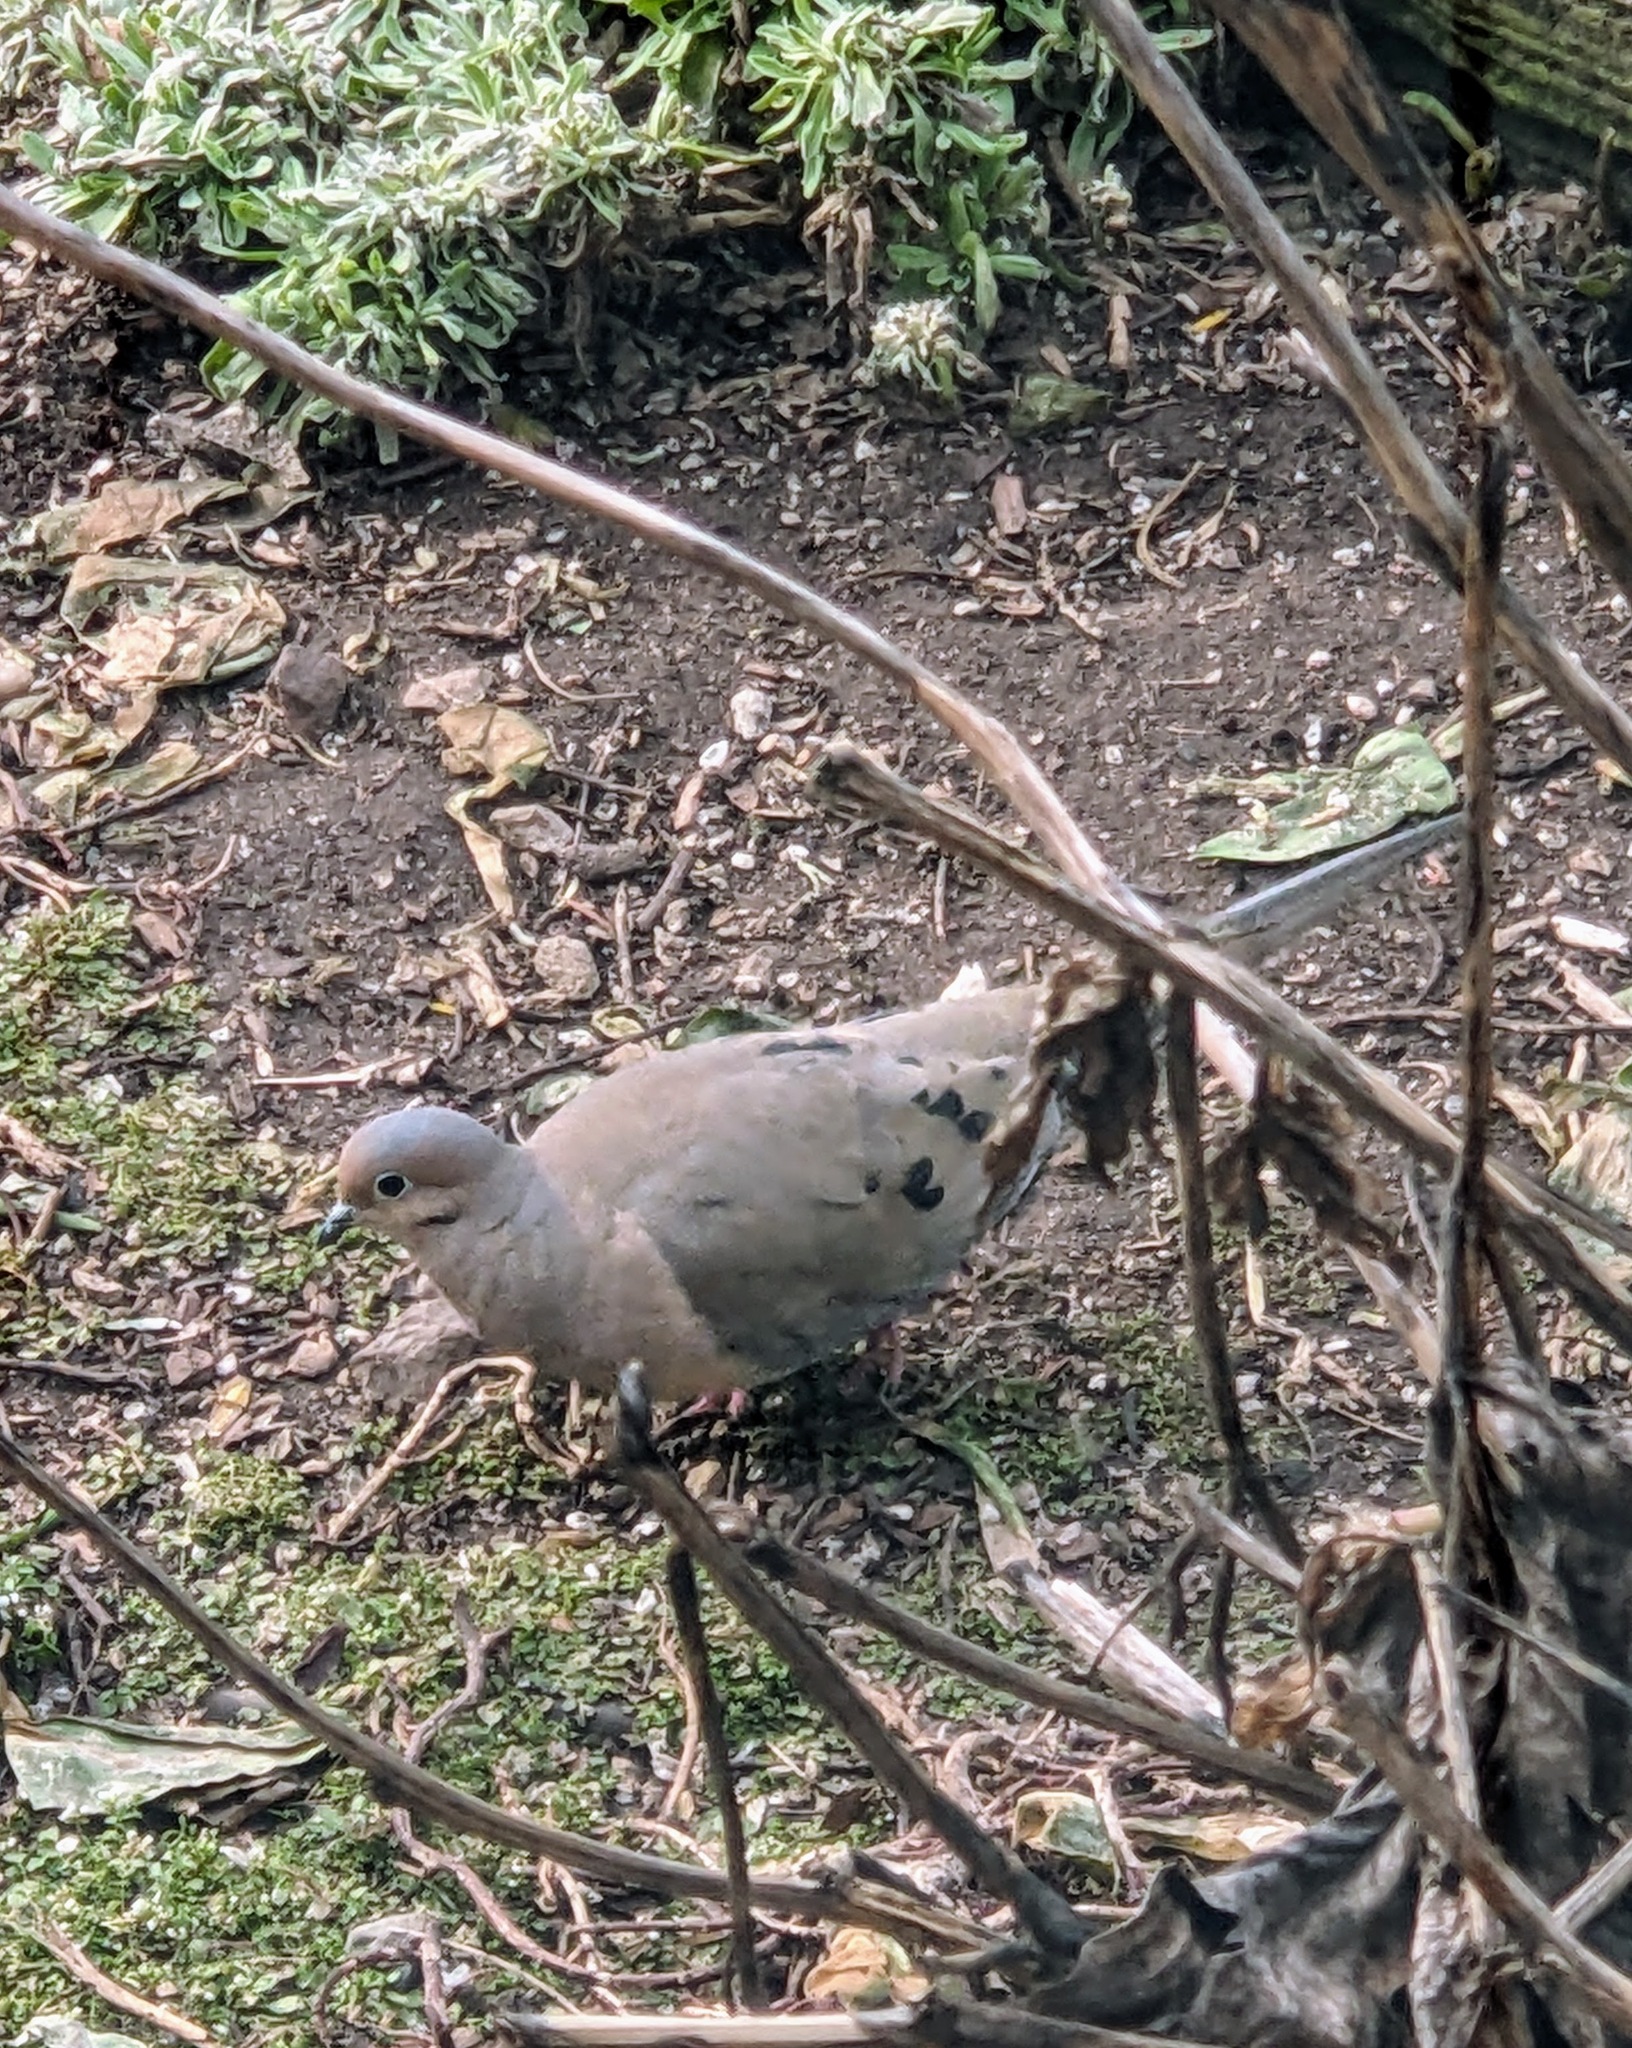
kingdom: Animalia
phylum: Chordata
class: Aves
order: Columbiformes
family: Columbidae
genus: Zenaida
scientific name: Zenaida macroura
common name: Mourning dove
